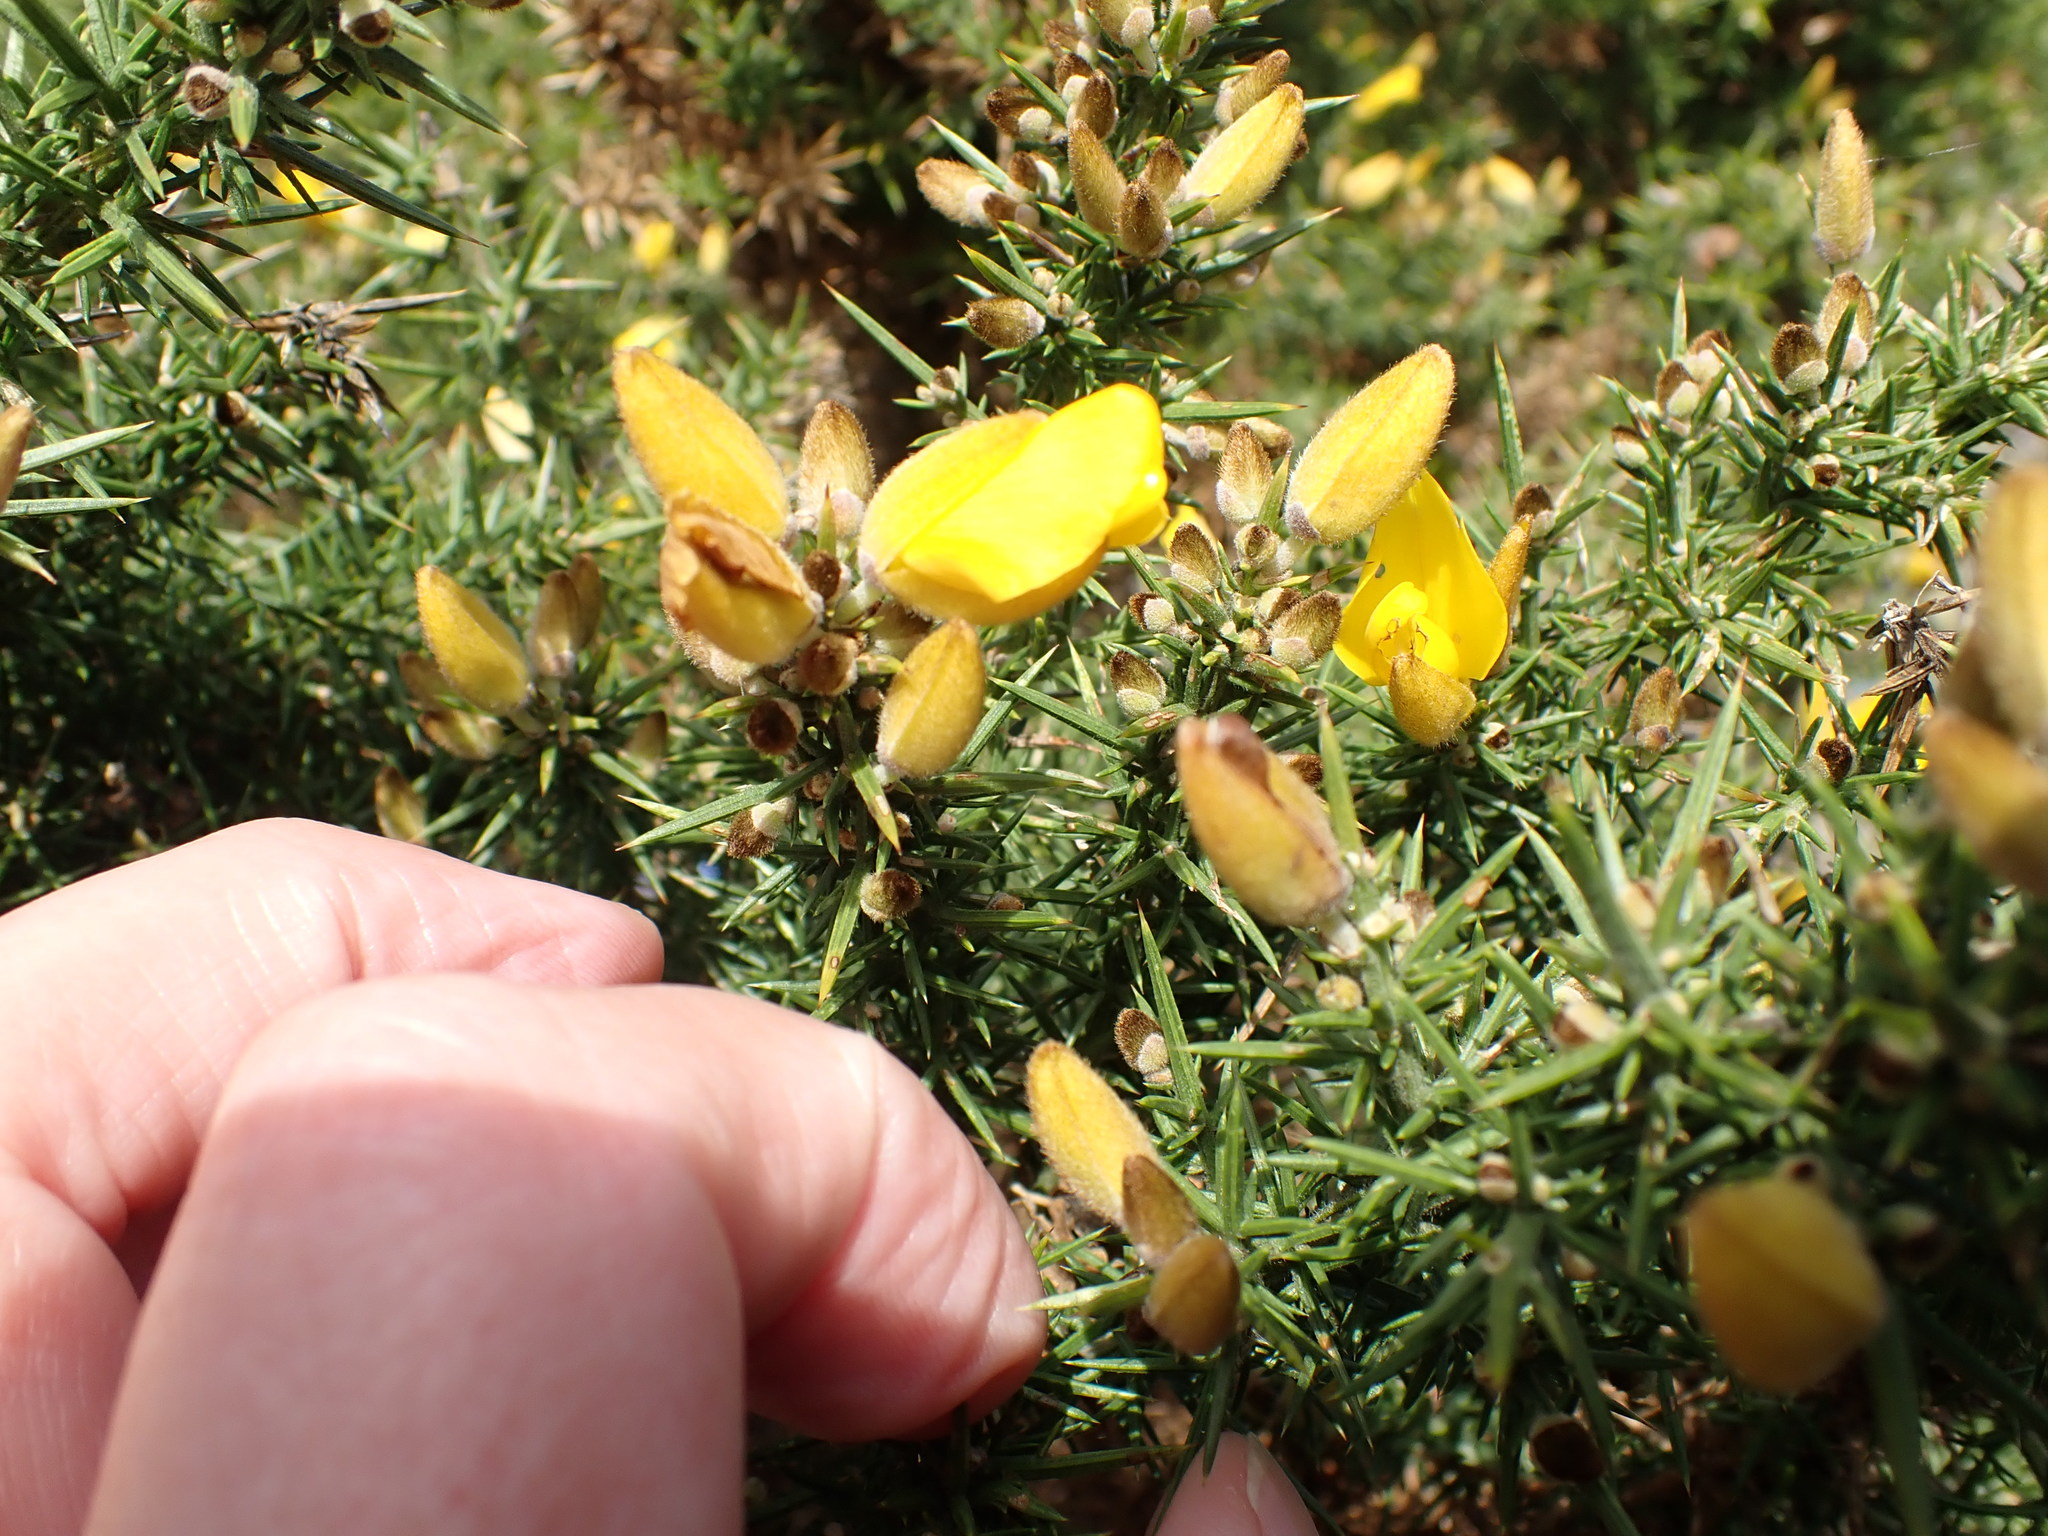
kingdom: Plantae
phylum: Tracheophyta
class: Magnoliopsida
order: Fabales
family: Fabaceae
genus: Ulex
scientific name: Ulex europaeus
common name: Common gorse
